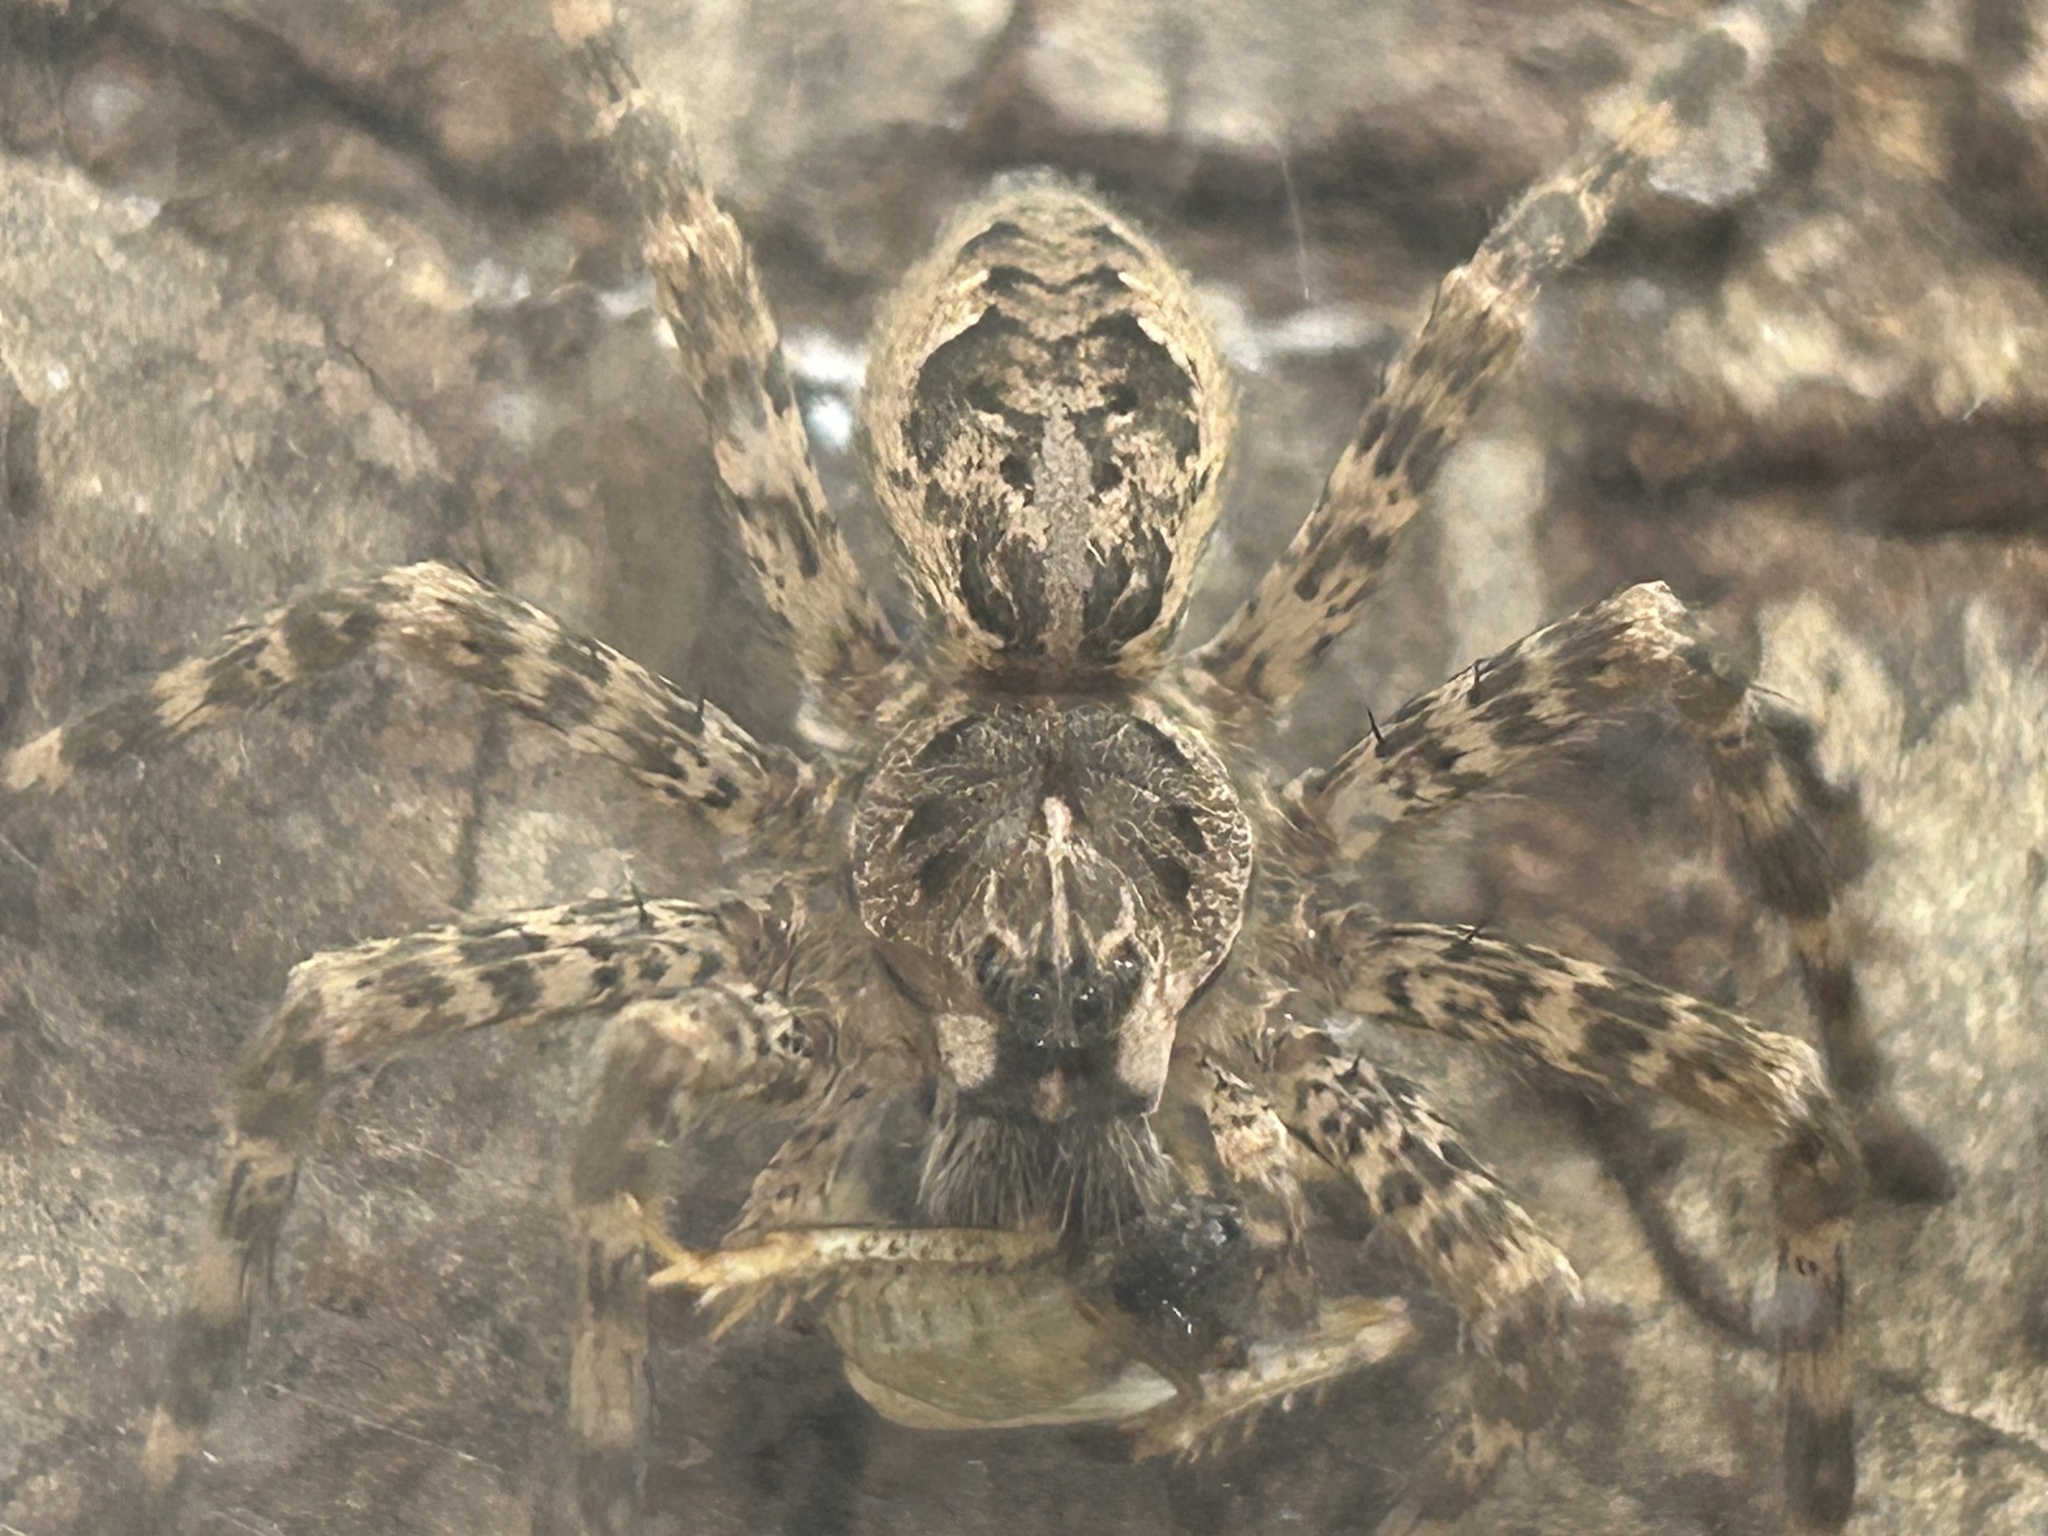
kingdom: Animalia
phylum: Arthropoda
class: Arachnida
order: Araneae
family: Pisauridae
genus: Dolomedes
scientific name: Dolomedes tenebrosus
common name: Dark fishing spider
